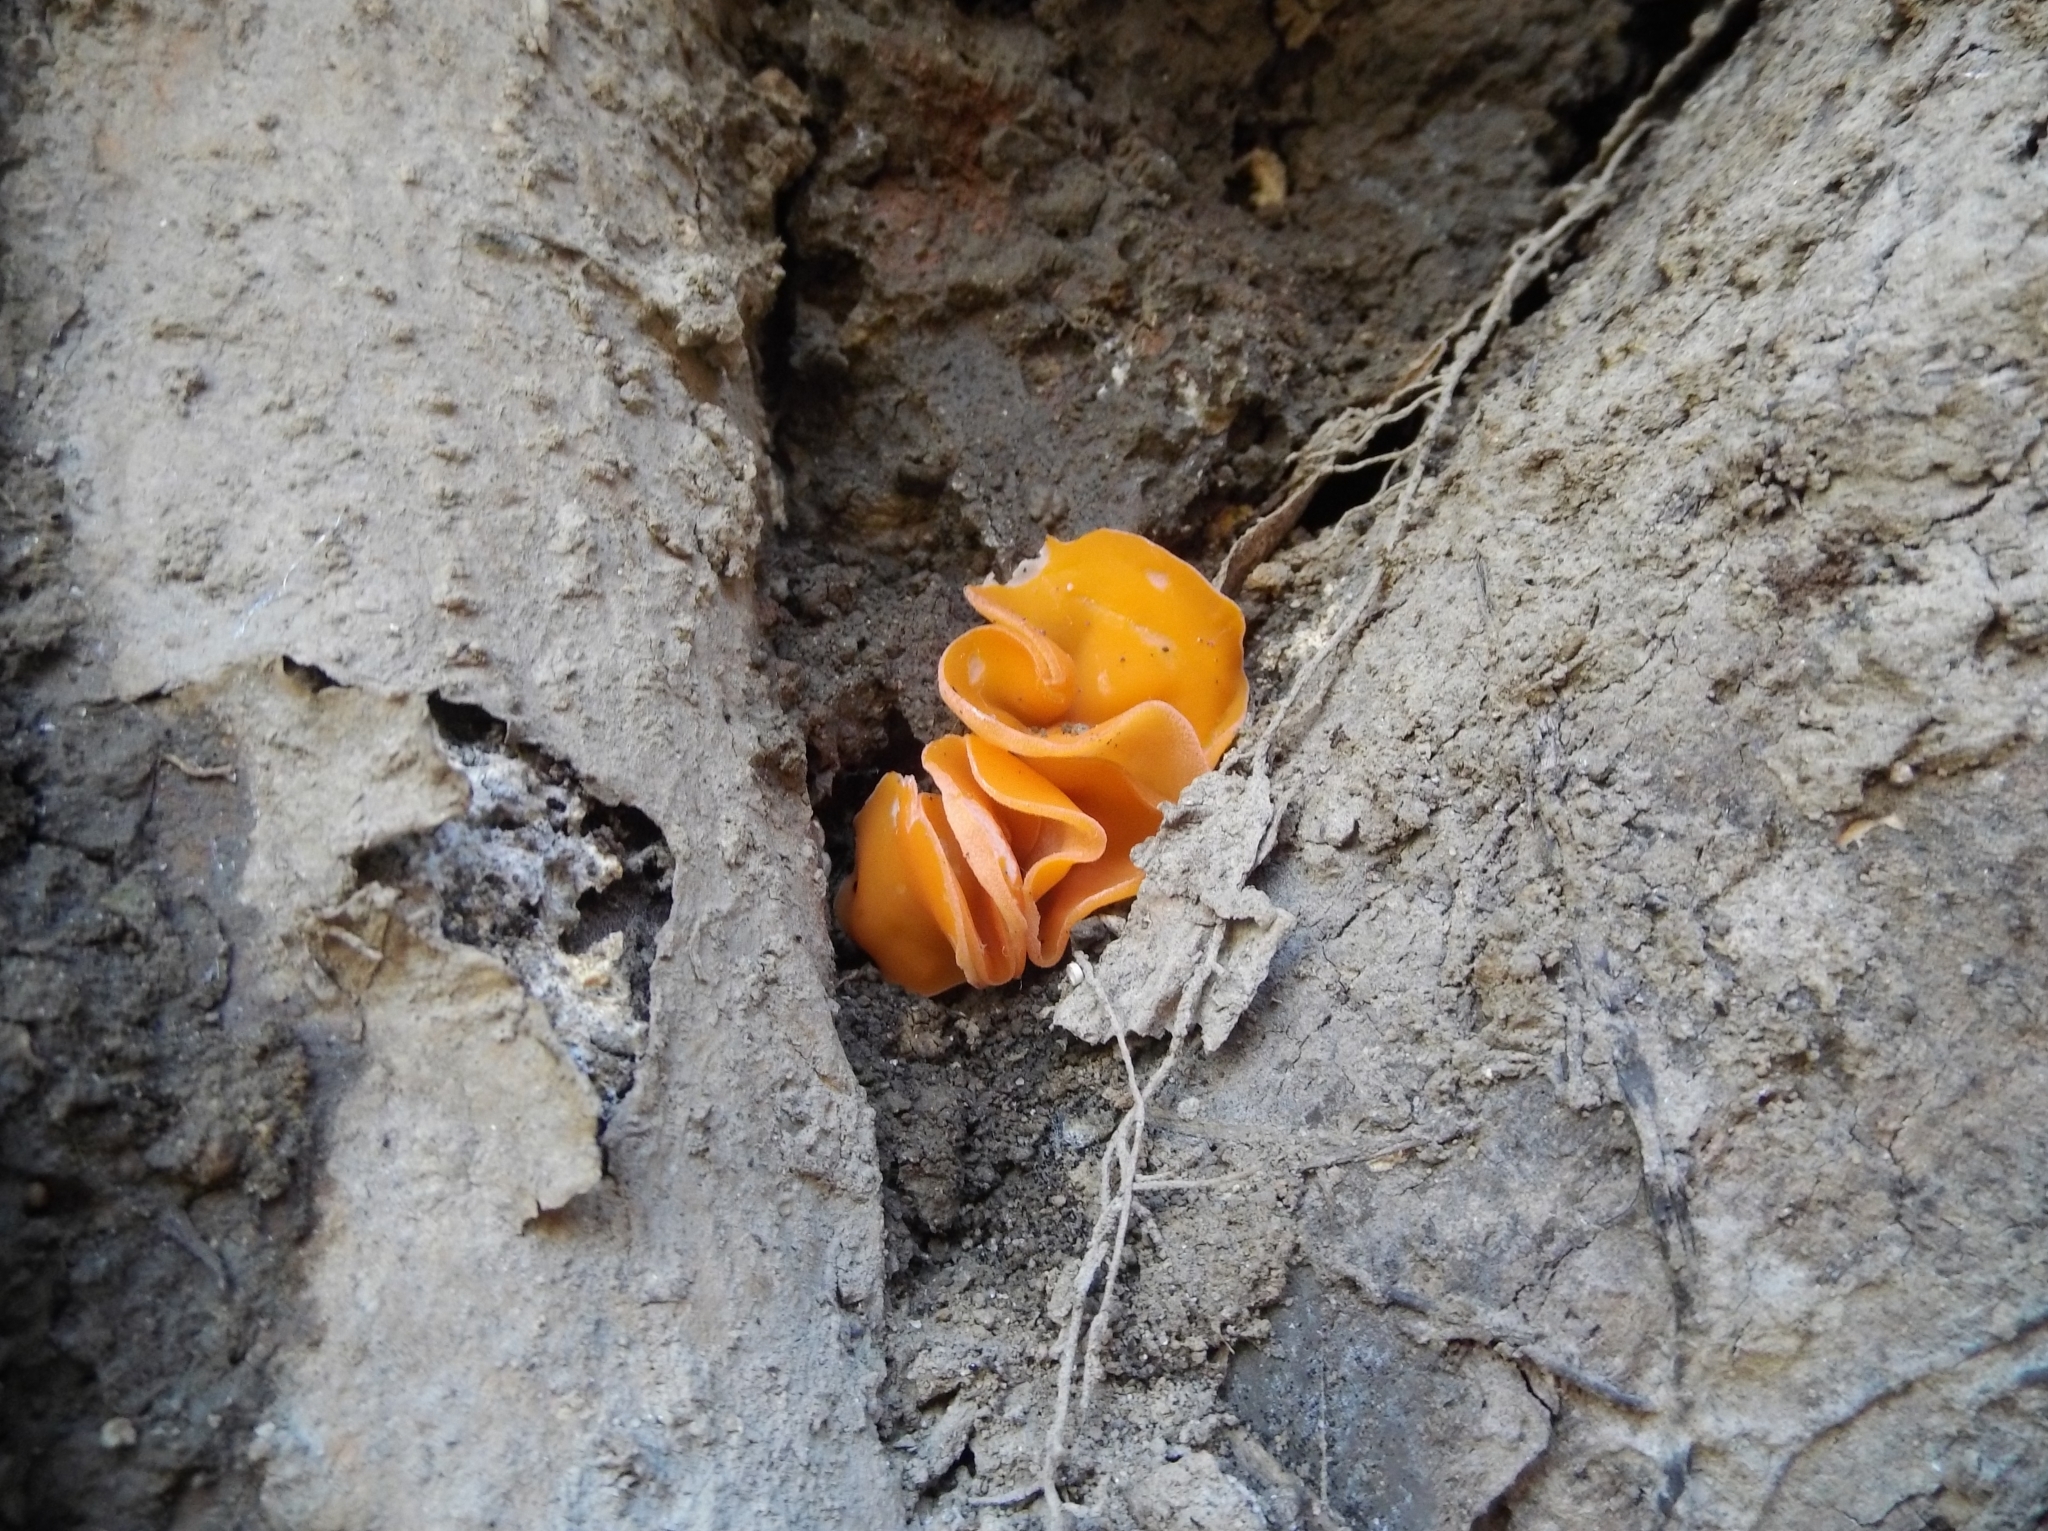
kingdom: Fungi
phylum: Ascomycota
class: Pezizomycetes
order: Pezizales
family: Pyronemataceae
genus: Aleuria
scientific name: Aleuria aurantia
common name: Orange peel fungus
